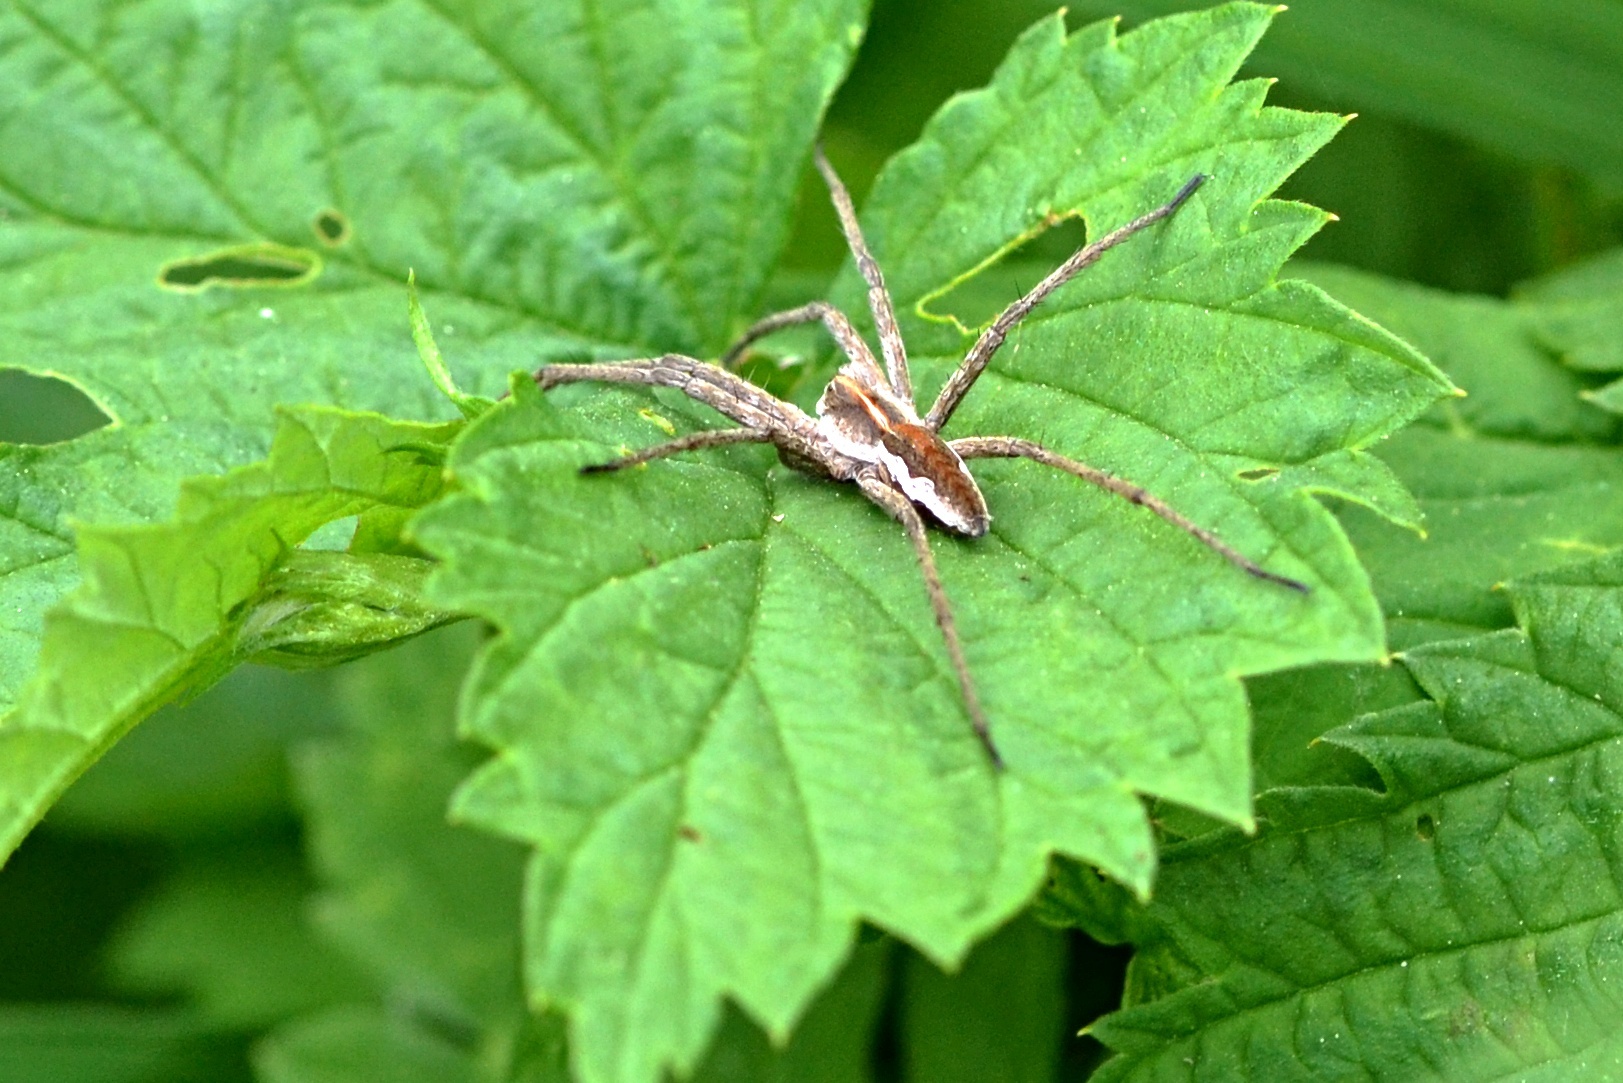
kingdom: Animalia
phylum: Arthropoda
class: Arachnida
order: Araneae
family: Pisauridae
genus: Pisaura
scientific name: Pisaura mirabilis
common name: Tent spider
